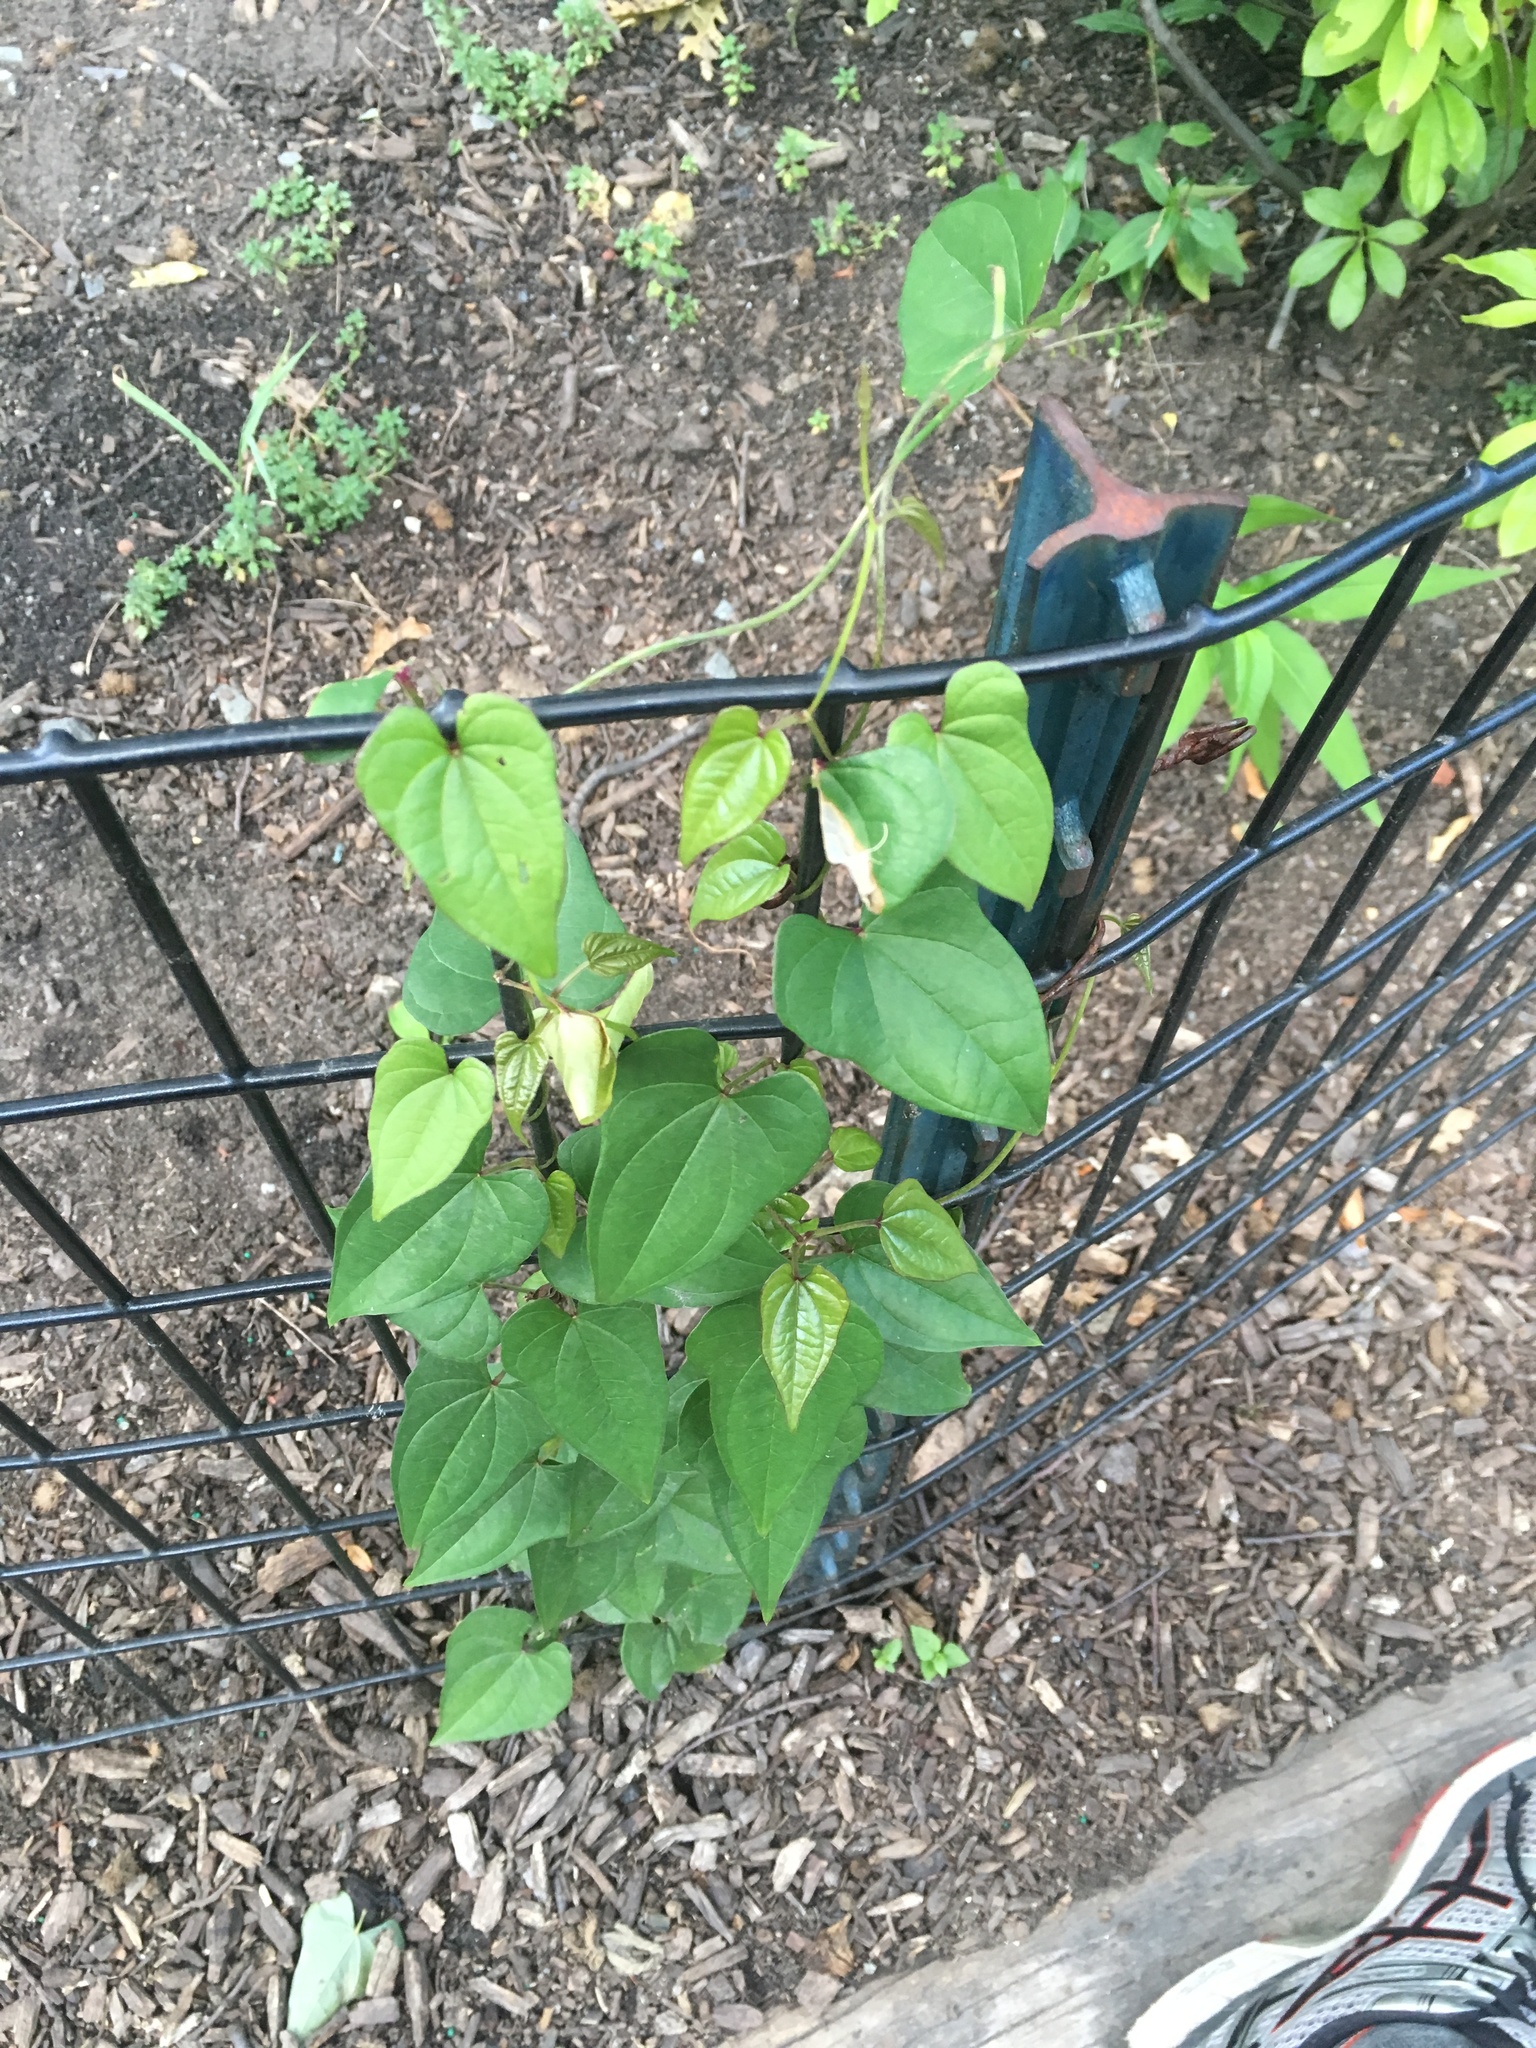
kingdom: Plantae
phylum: Tracheophyta
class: Liliopsida
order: Dioscoreales
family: Dioscoreaceae
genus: Dioscorea
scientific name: Dioscorea polystachya
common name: Chinese yam
